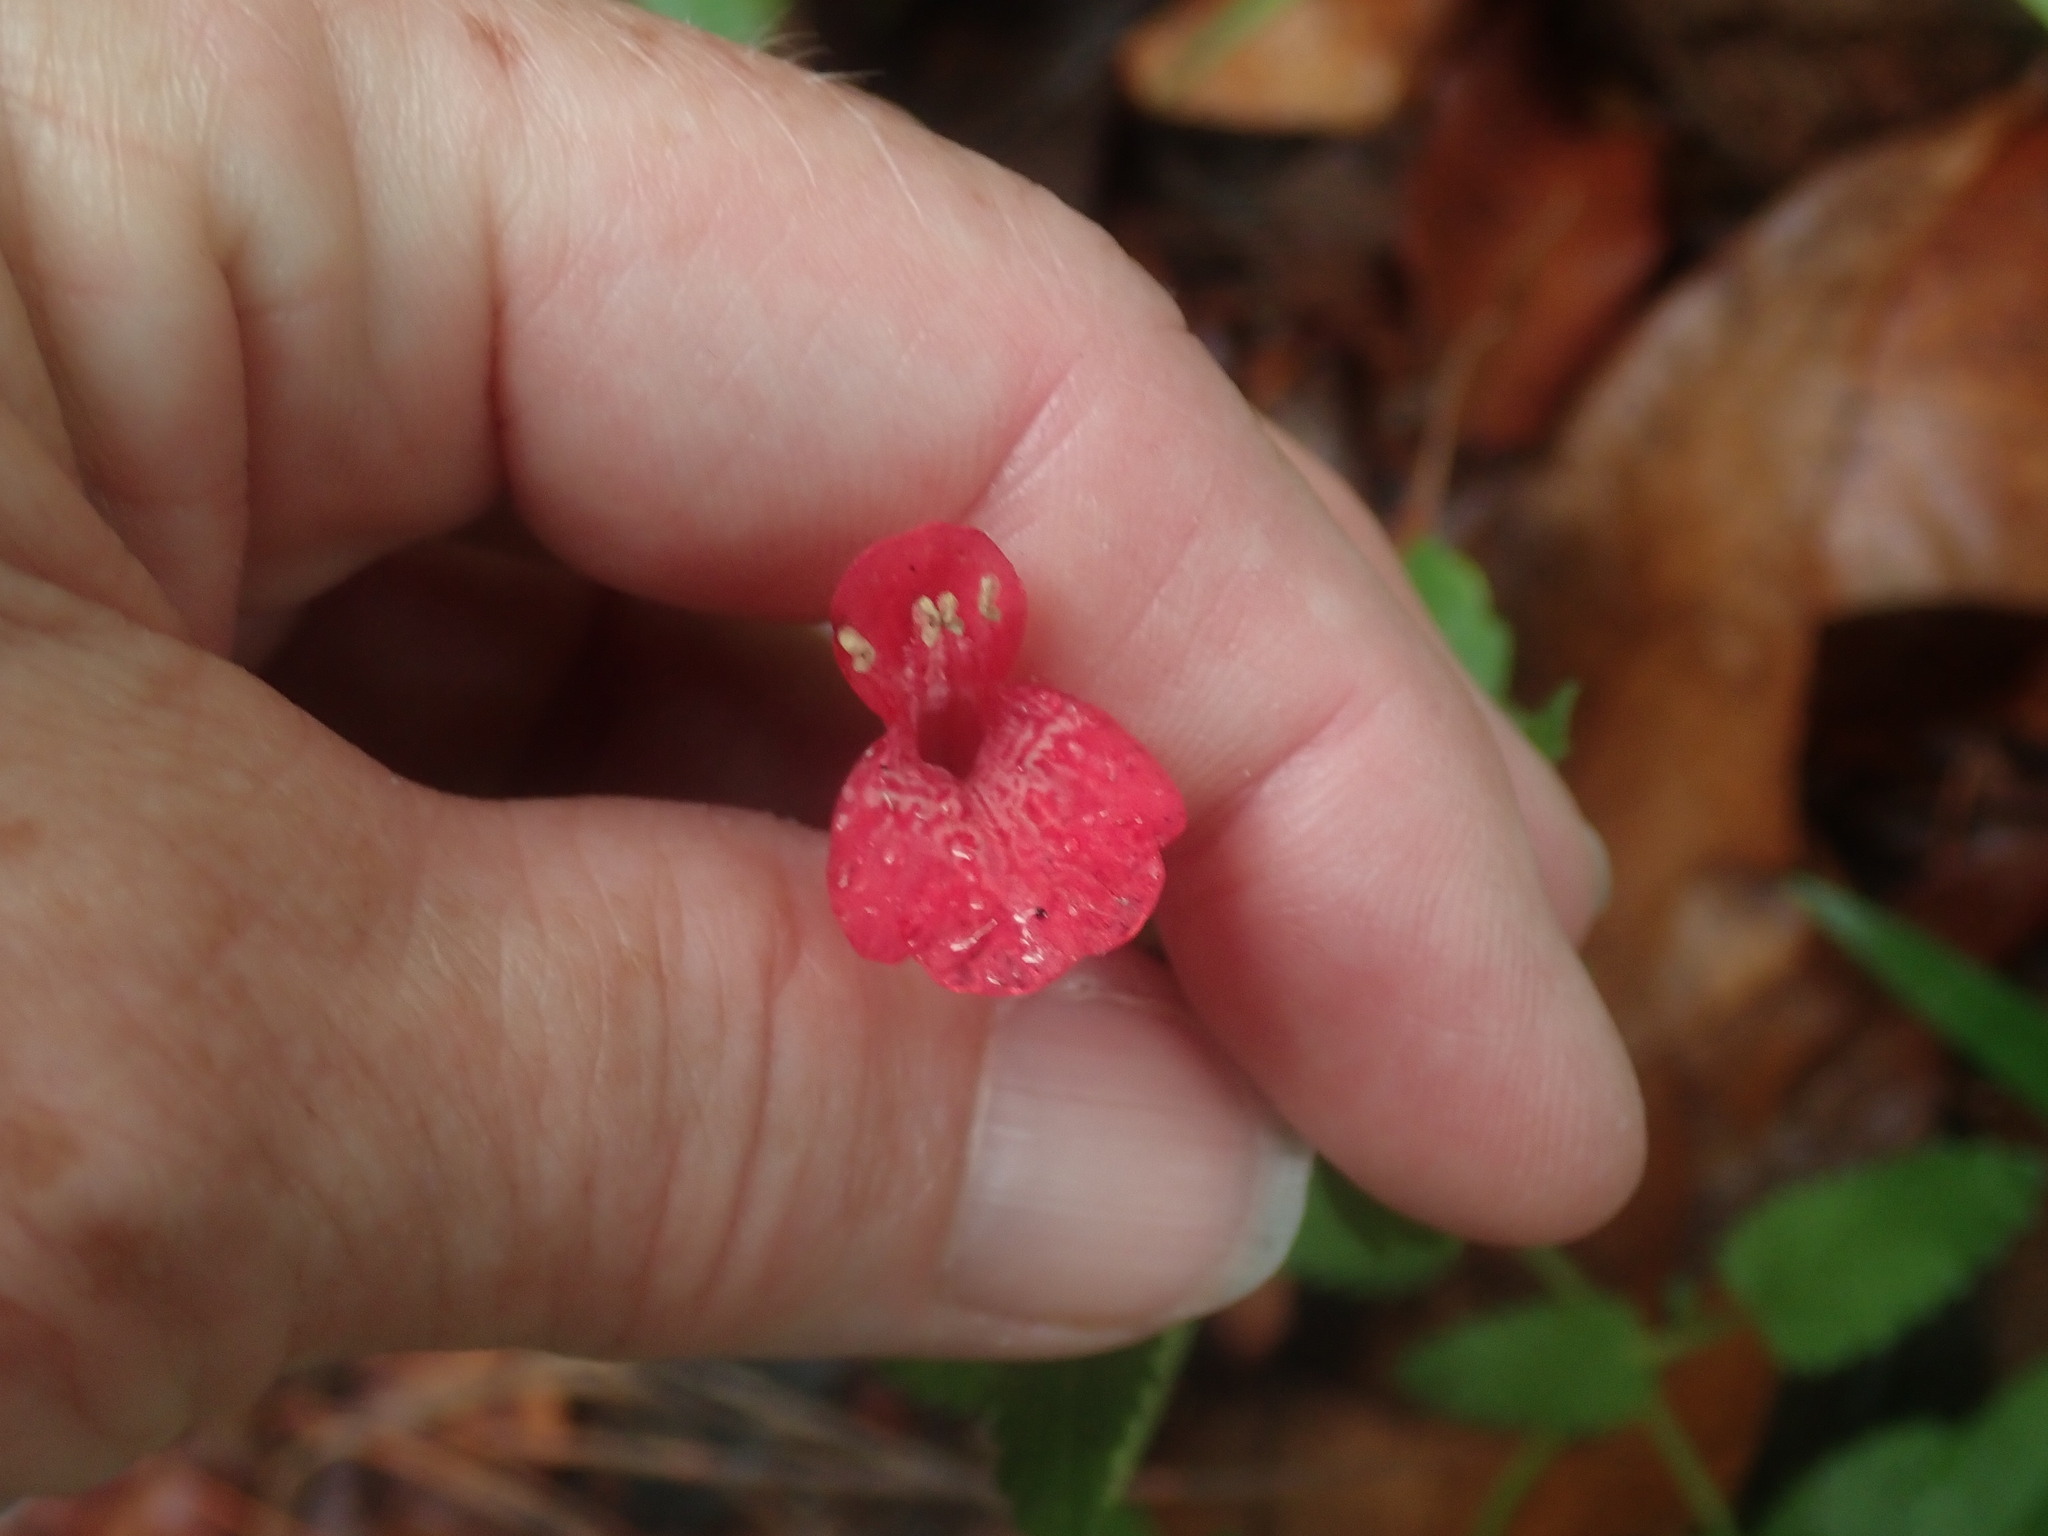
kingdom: Plantae
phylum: Tracheophyta
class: Magnoliopsida
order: Lamiales
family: Lamiaceae
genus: Stachys
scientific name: Stachys coccinea
